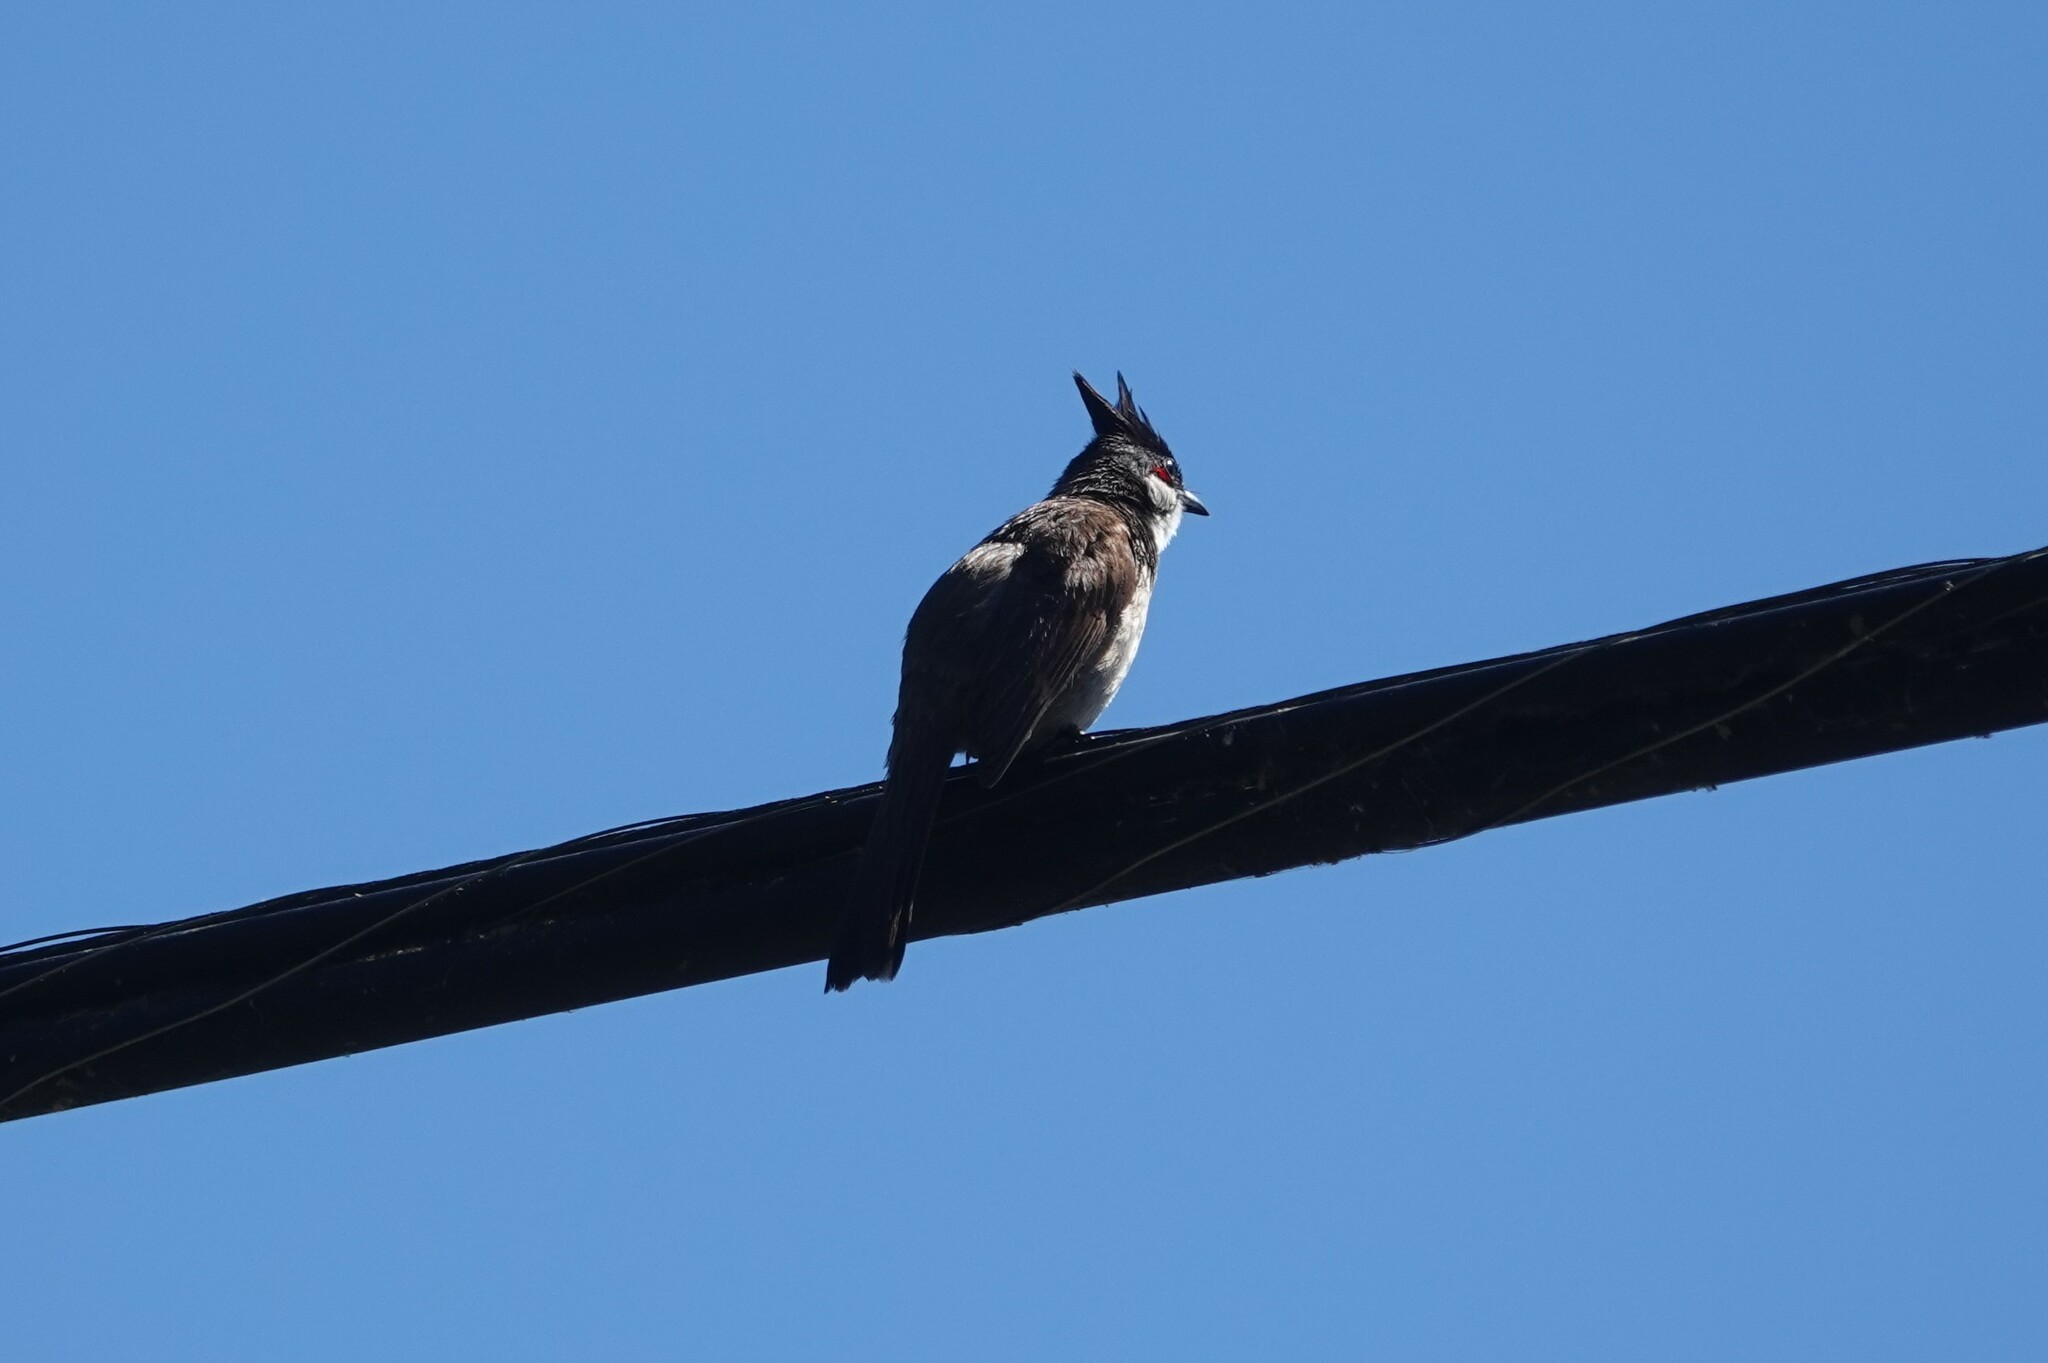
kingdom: Animalia
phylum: Chordata
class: Aves
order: Passeriformes
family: Pycnonotidae
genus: Pycnonotus
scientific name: Pycnonotus jocosus
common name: Red-whiskered bulbul
